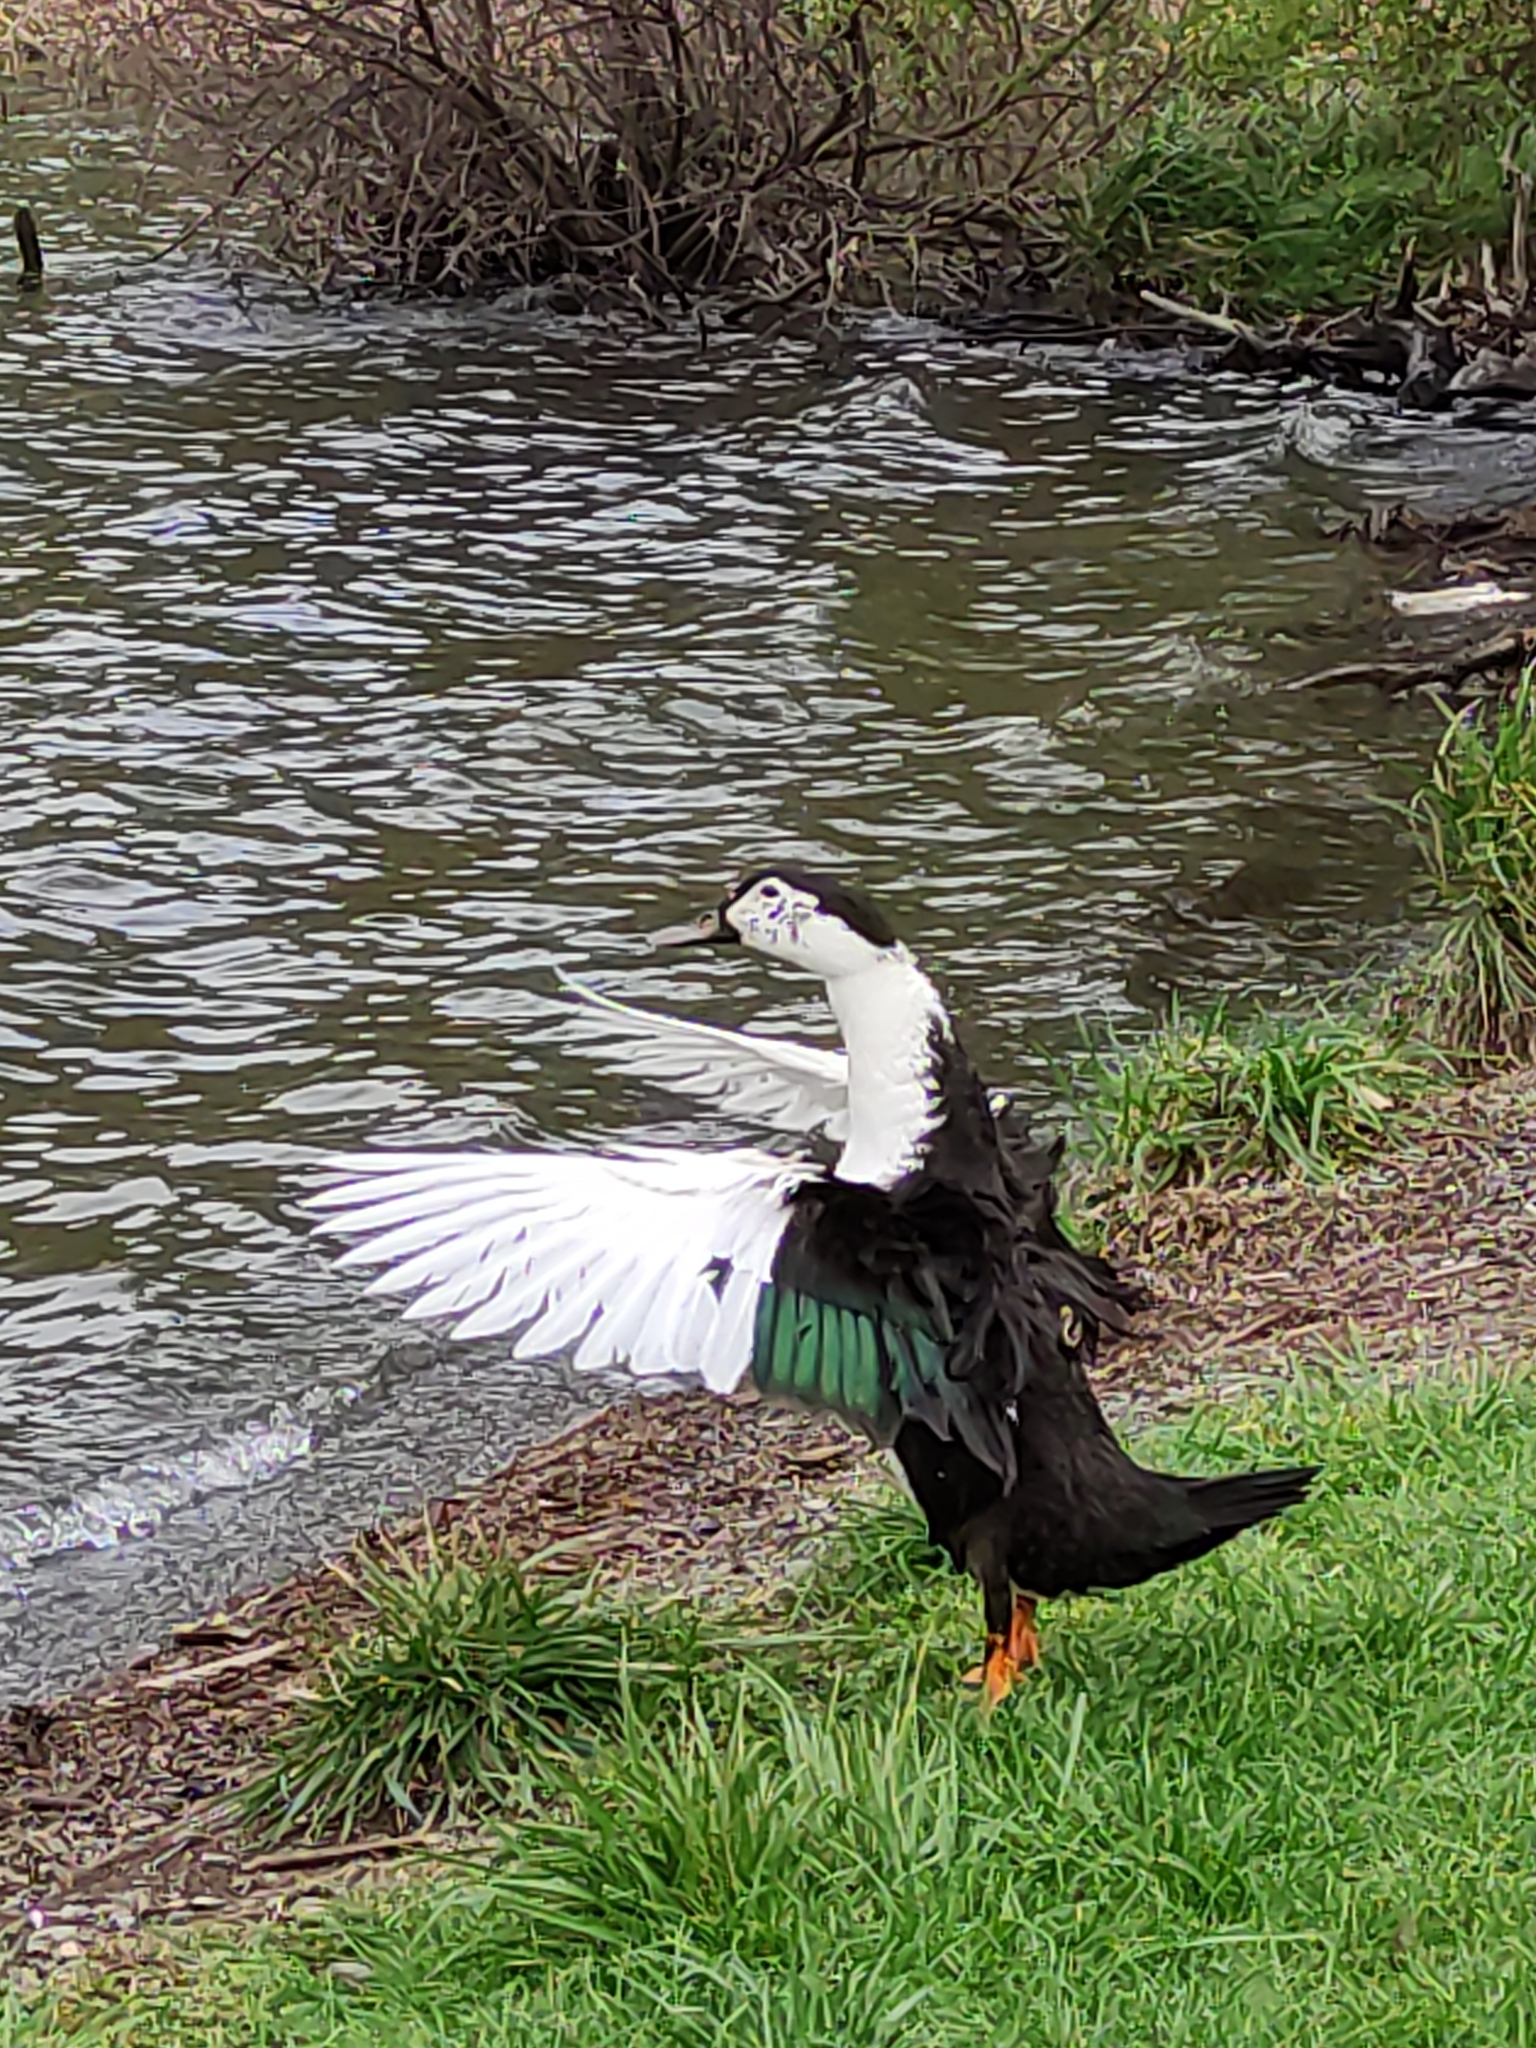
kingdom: Animalia
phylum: Chordata
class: Aves
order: Anseriformes
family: Anatidae
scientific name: Anatidae
